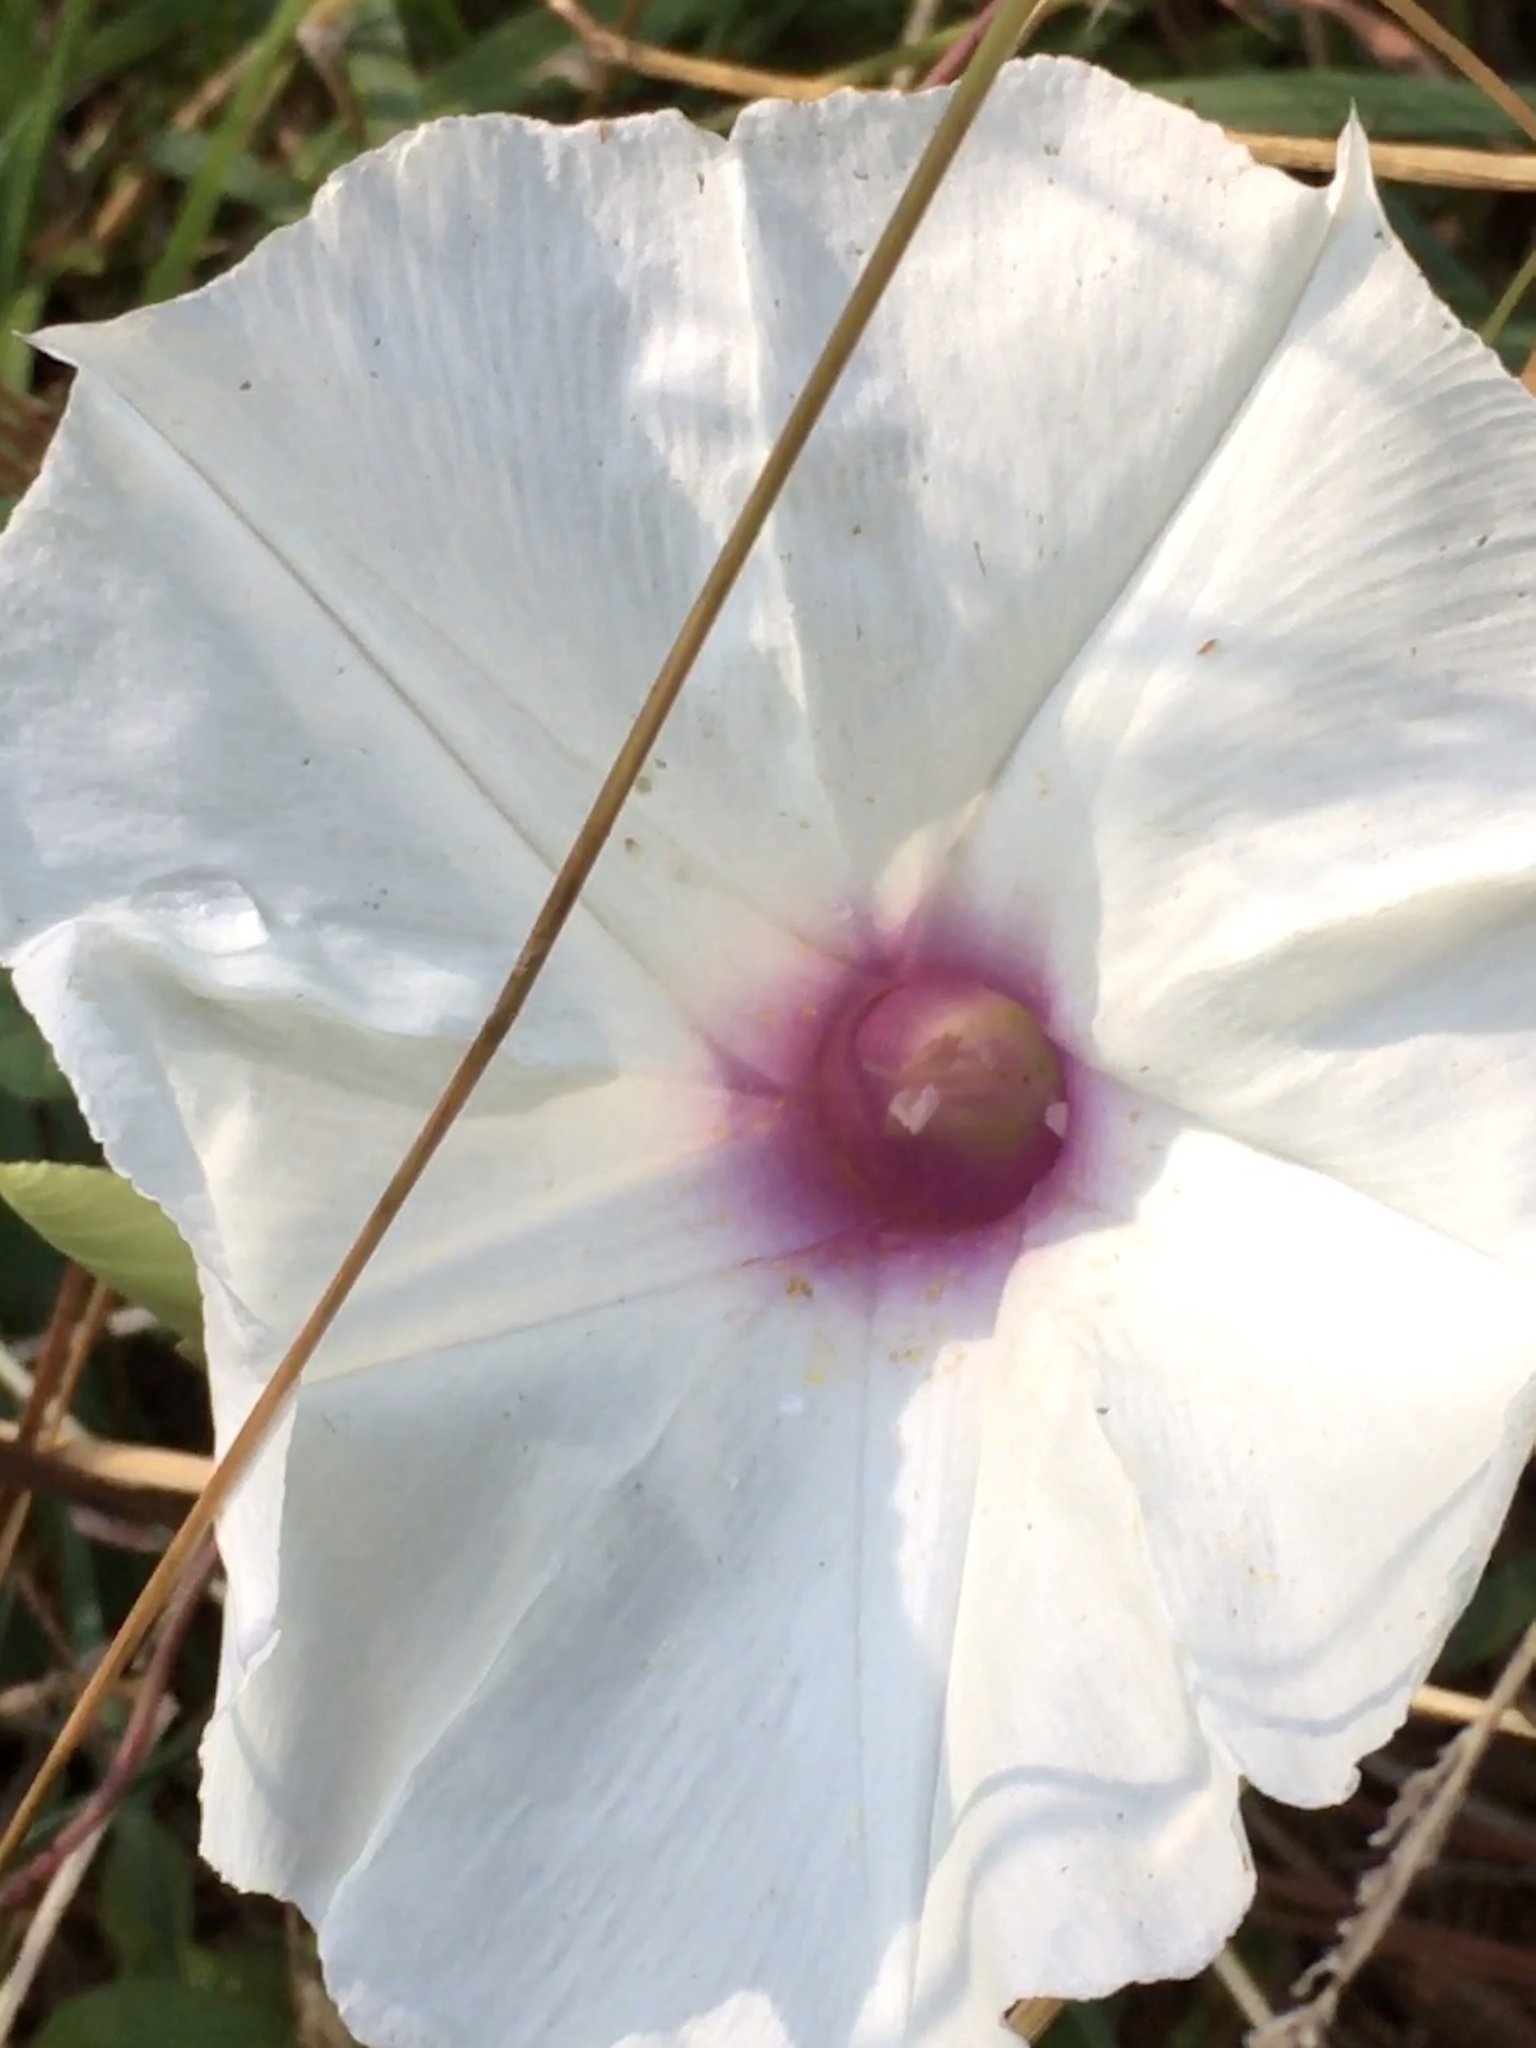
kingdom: Plantae
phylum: Tracheophyta
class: Magnoliopsida
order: Solanales
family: Convolvulaceae
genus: Ipomoea
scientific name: Ipomoea pandurata
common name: Man-of-the-earth
